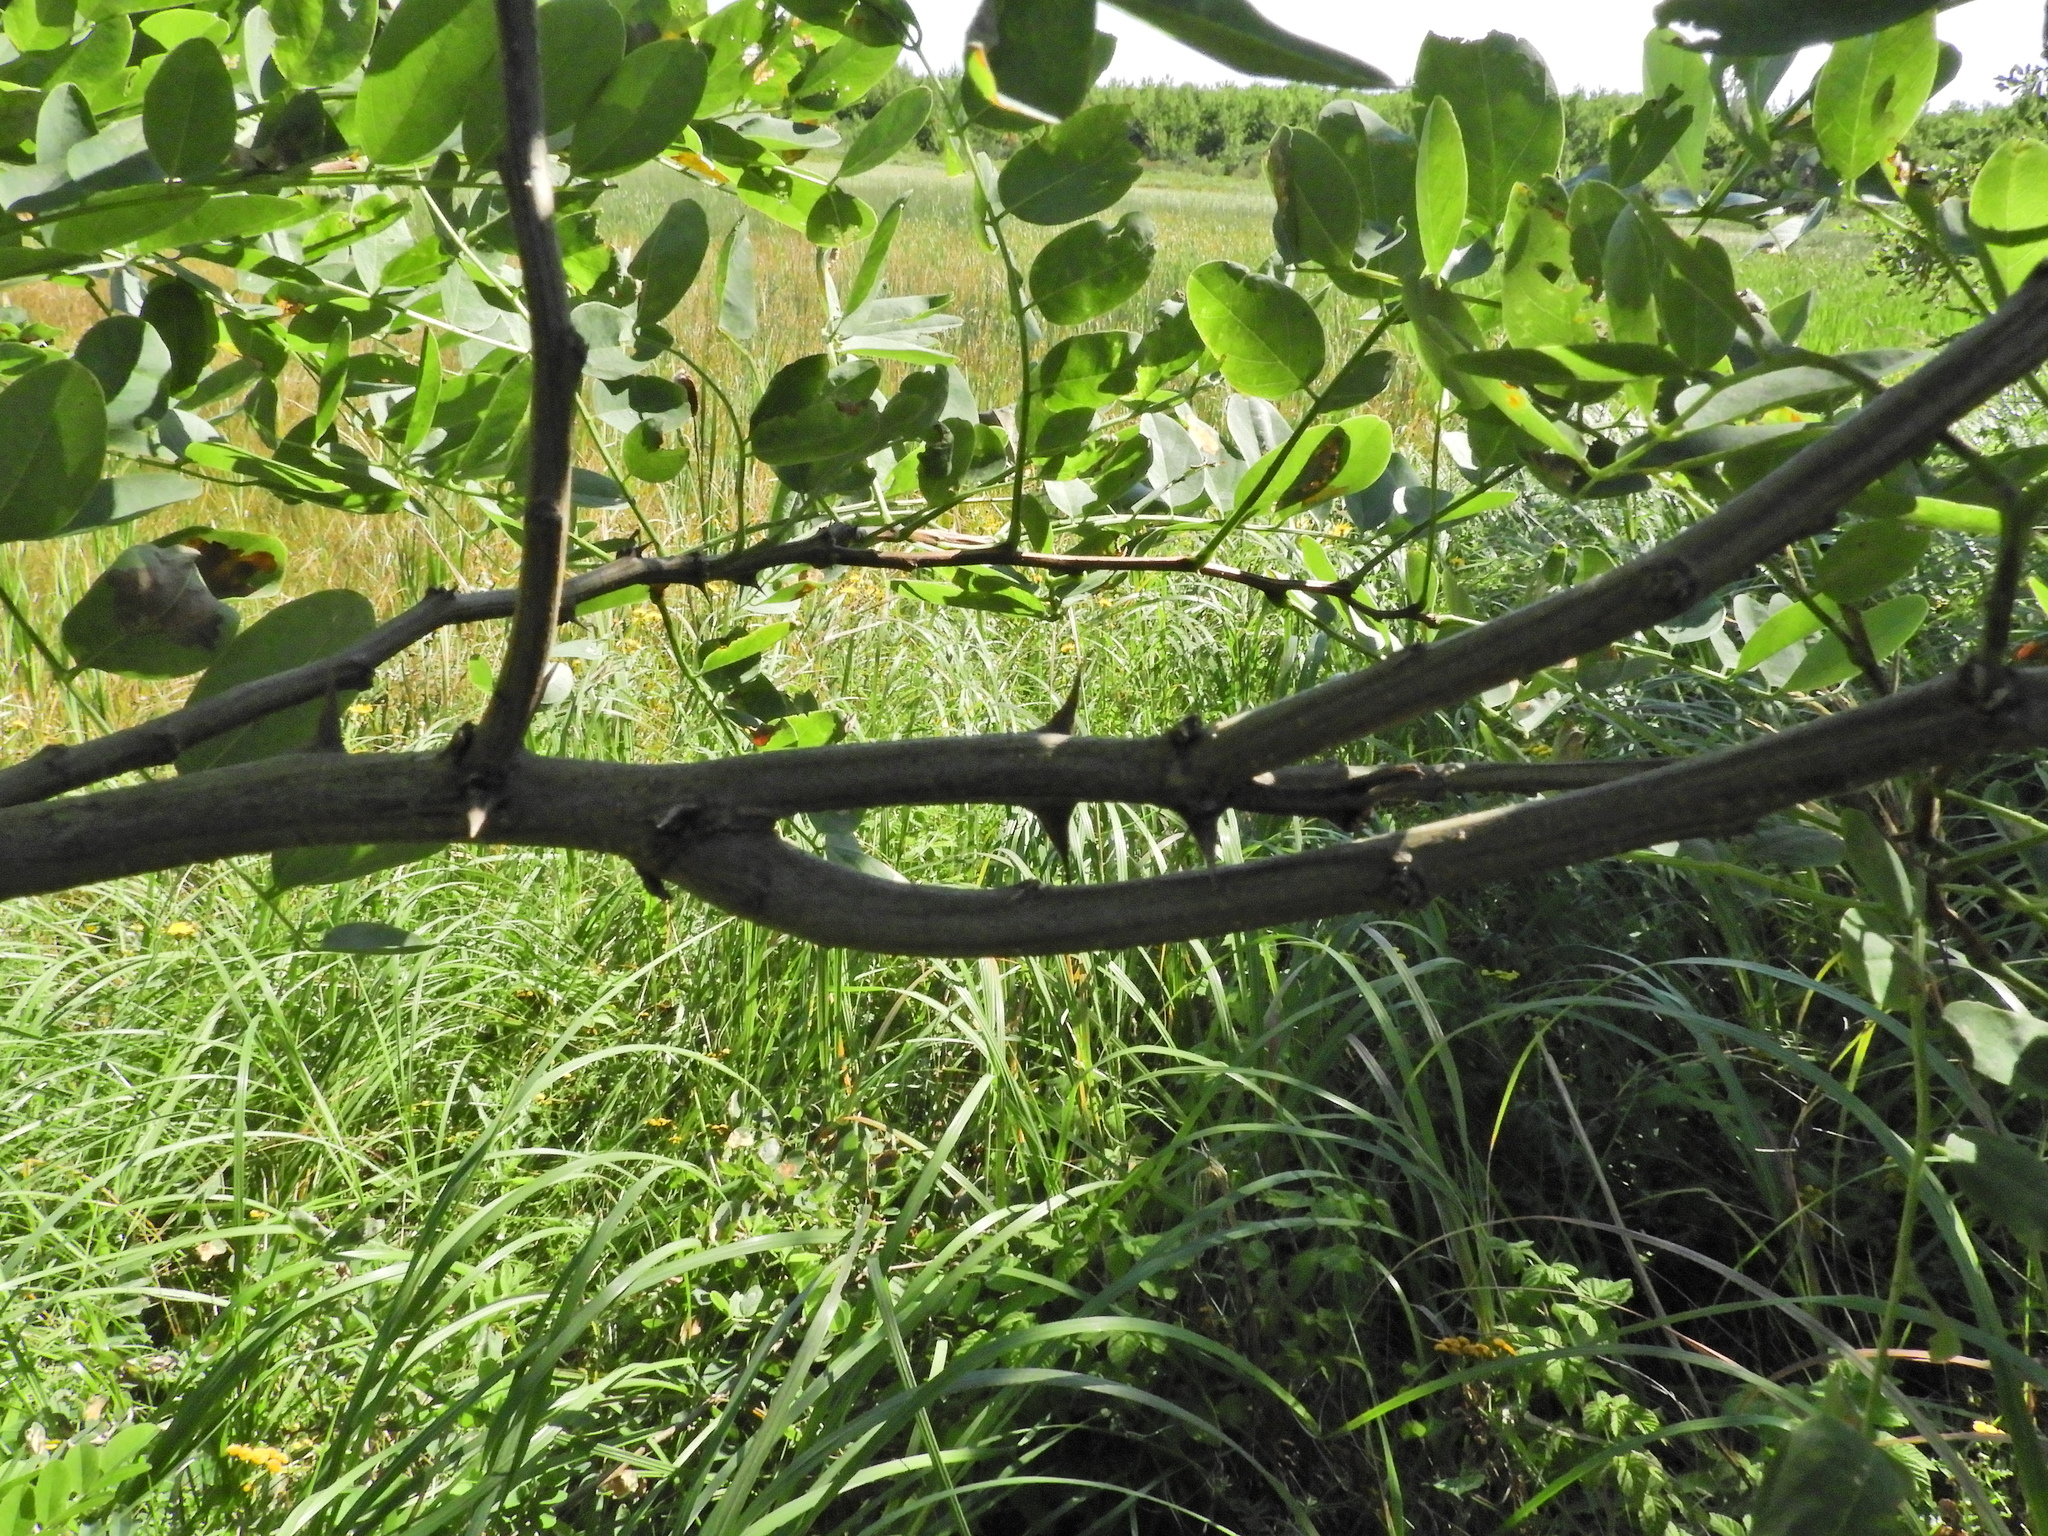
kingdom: Plantae
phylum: Tracheophyta
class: Magnoliopsida
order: Fabales
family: Fabaceae
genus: Robinia
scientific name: Robinia pseudoacacia
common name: Black locust
